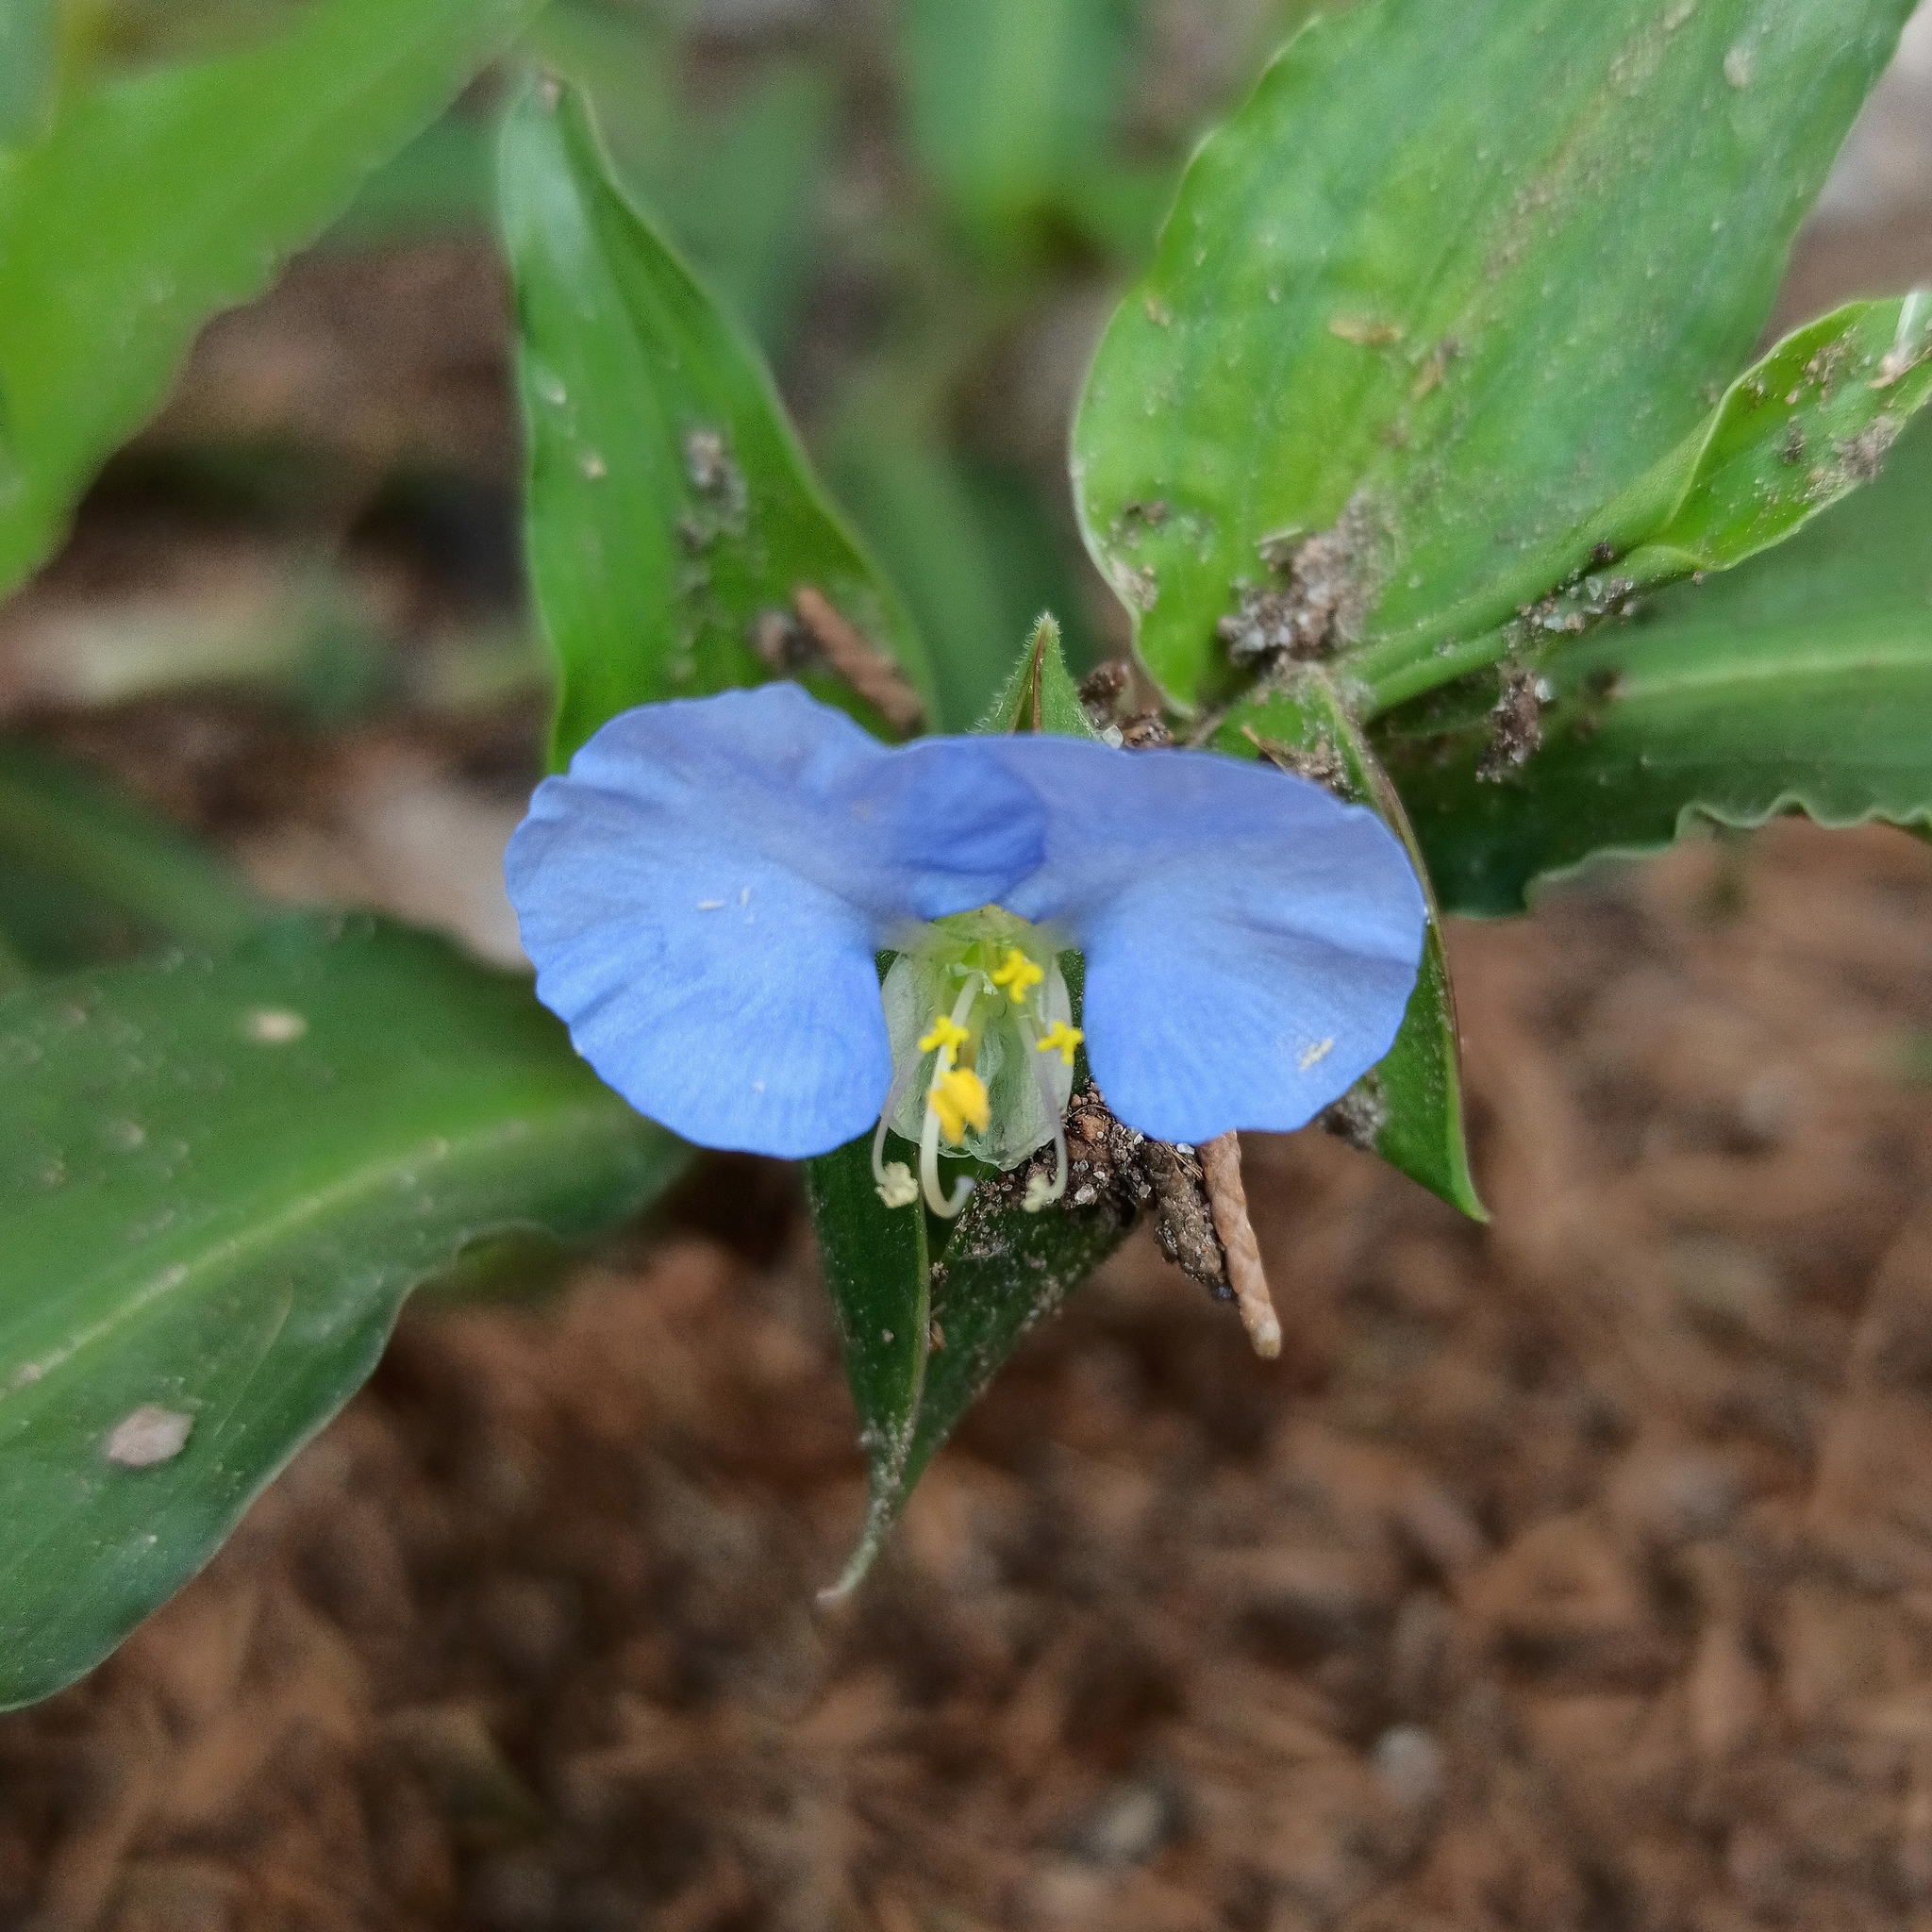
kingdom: Plantae
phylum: Tracheophyta
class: Liliopsida
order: Commelinales
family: Commelinaceae
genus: Commelina
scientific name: Commelina erecta
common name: Blousel blommetjie
